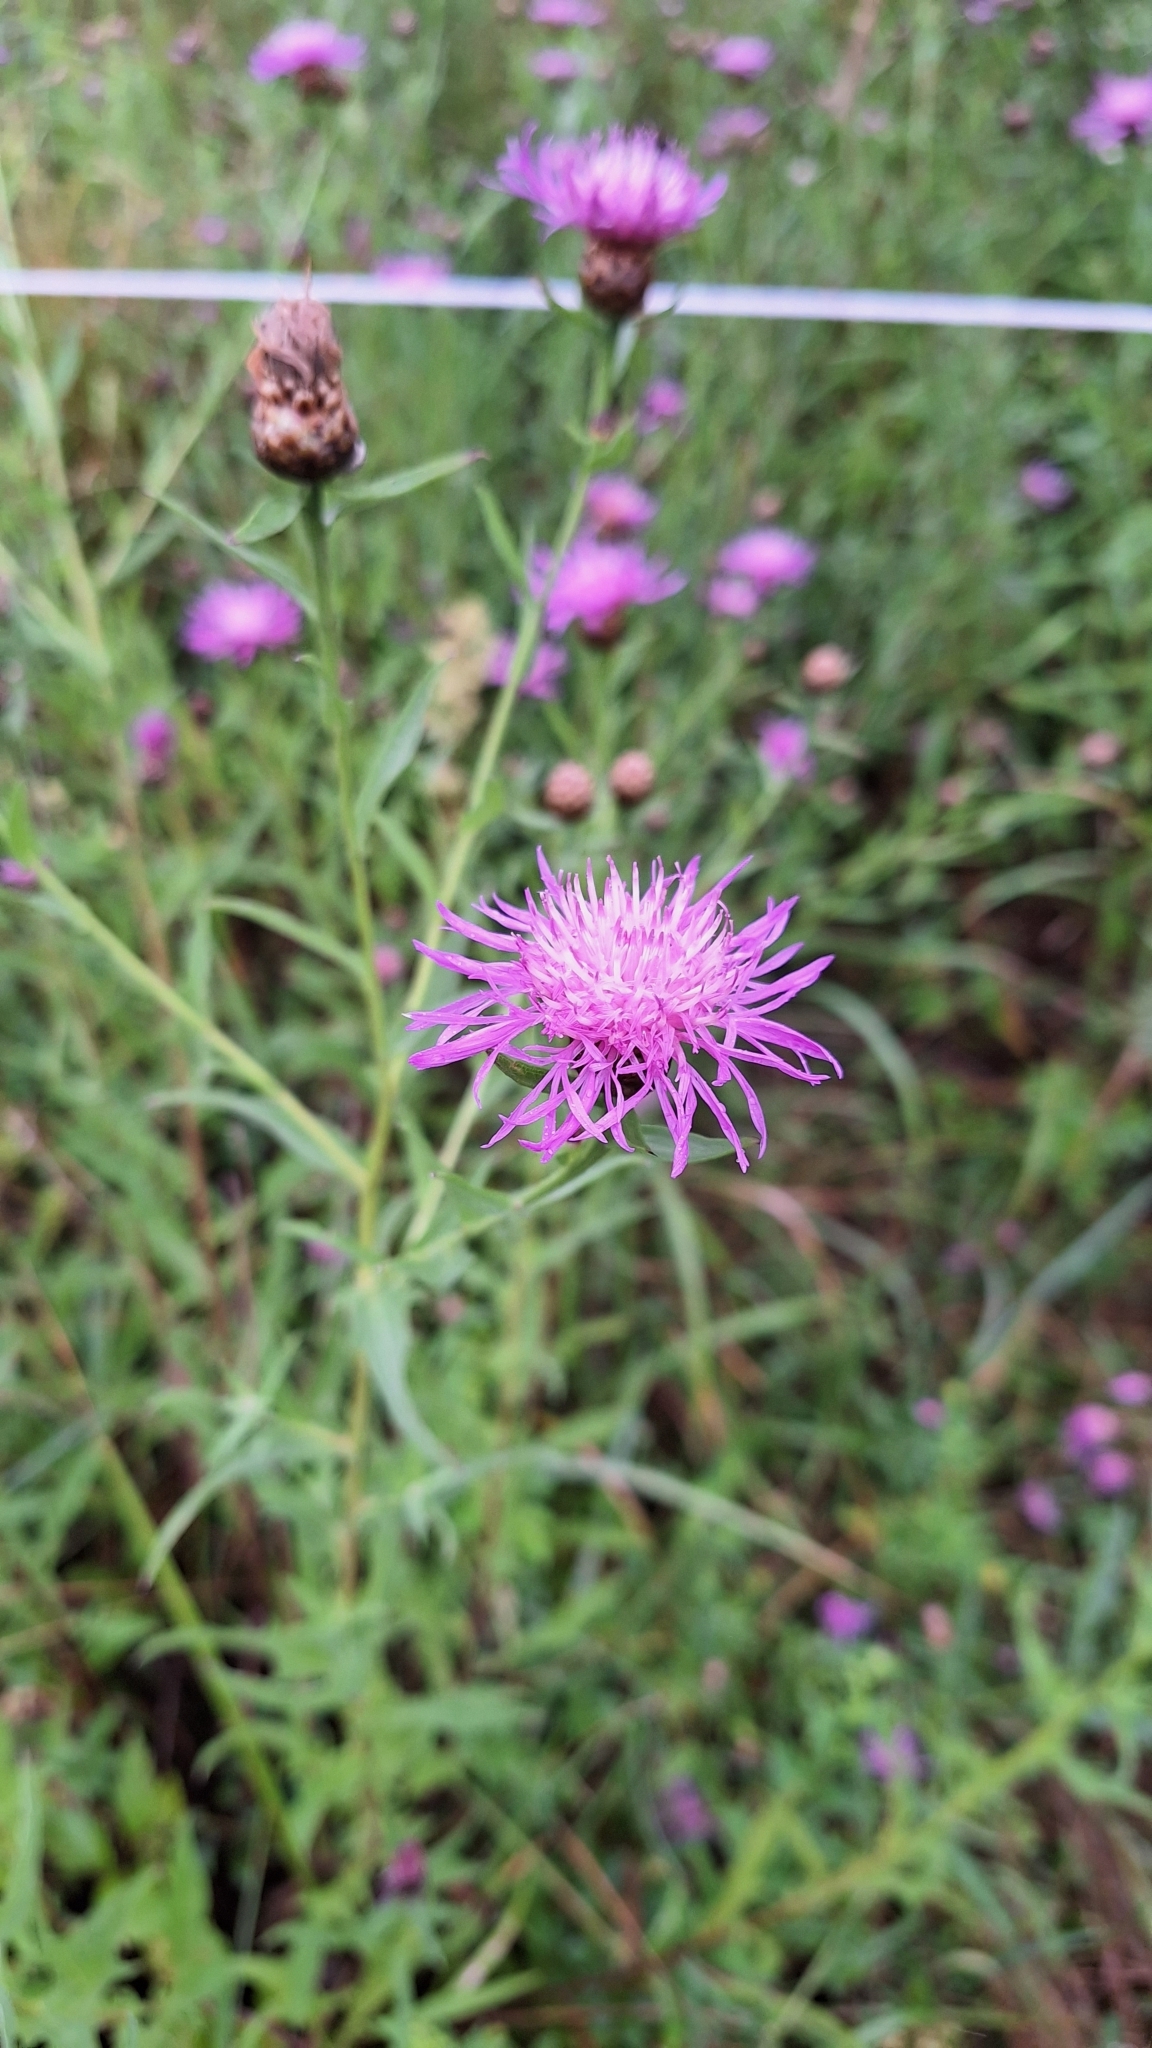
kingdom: Plantae
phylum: Tracheophyta
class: Magnoliopsida
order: Asterales
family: Asteraceae
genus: Centaurea
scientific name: Centaurea jacea
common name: Brown knapweed
